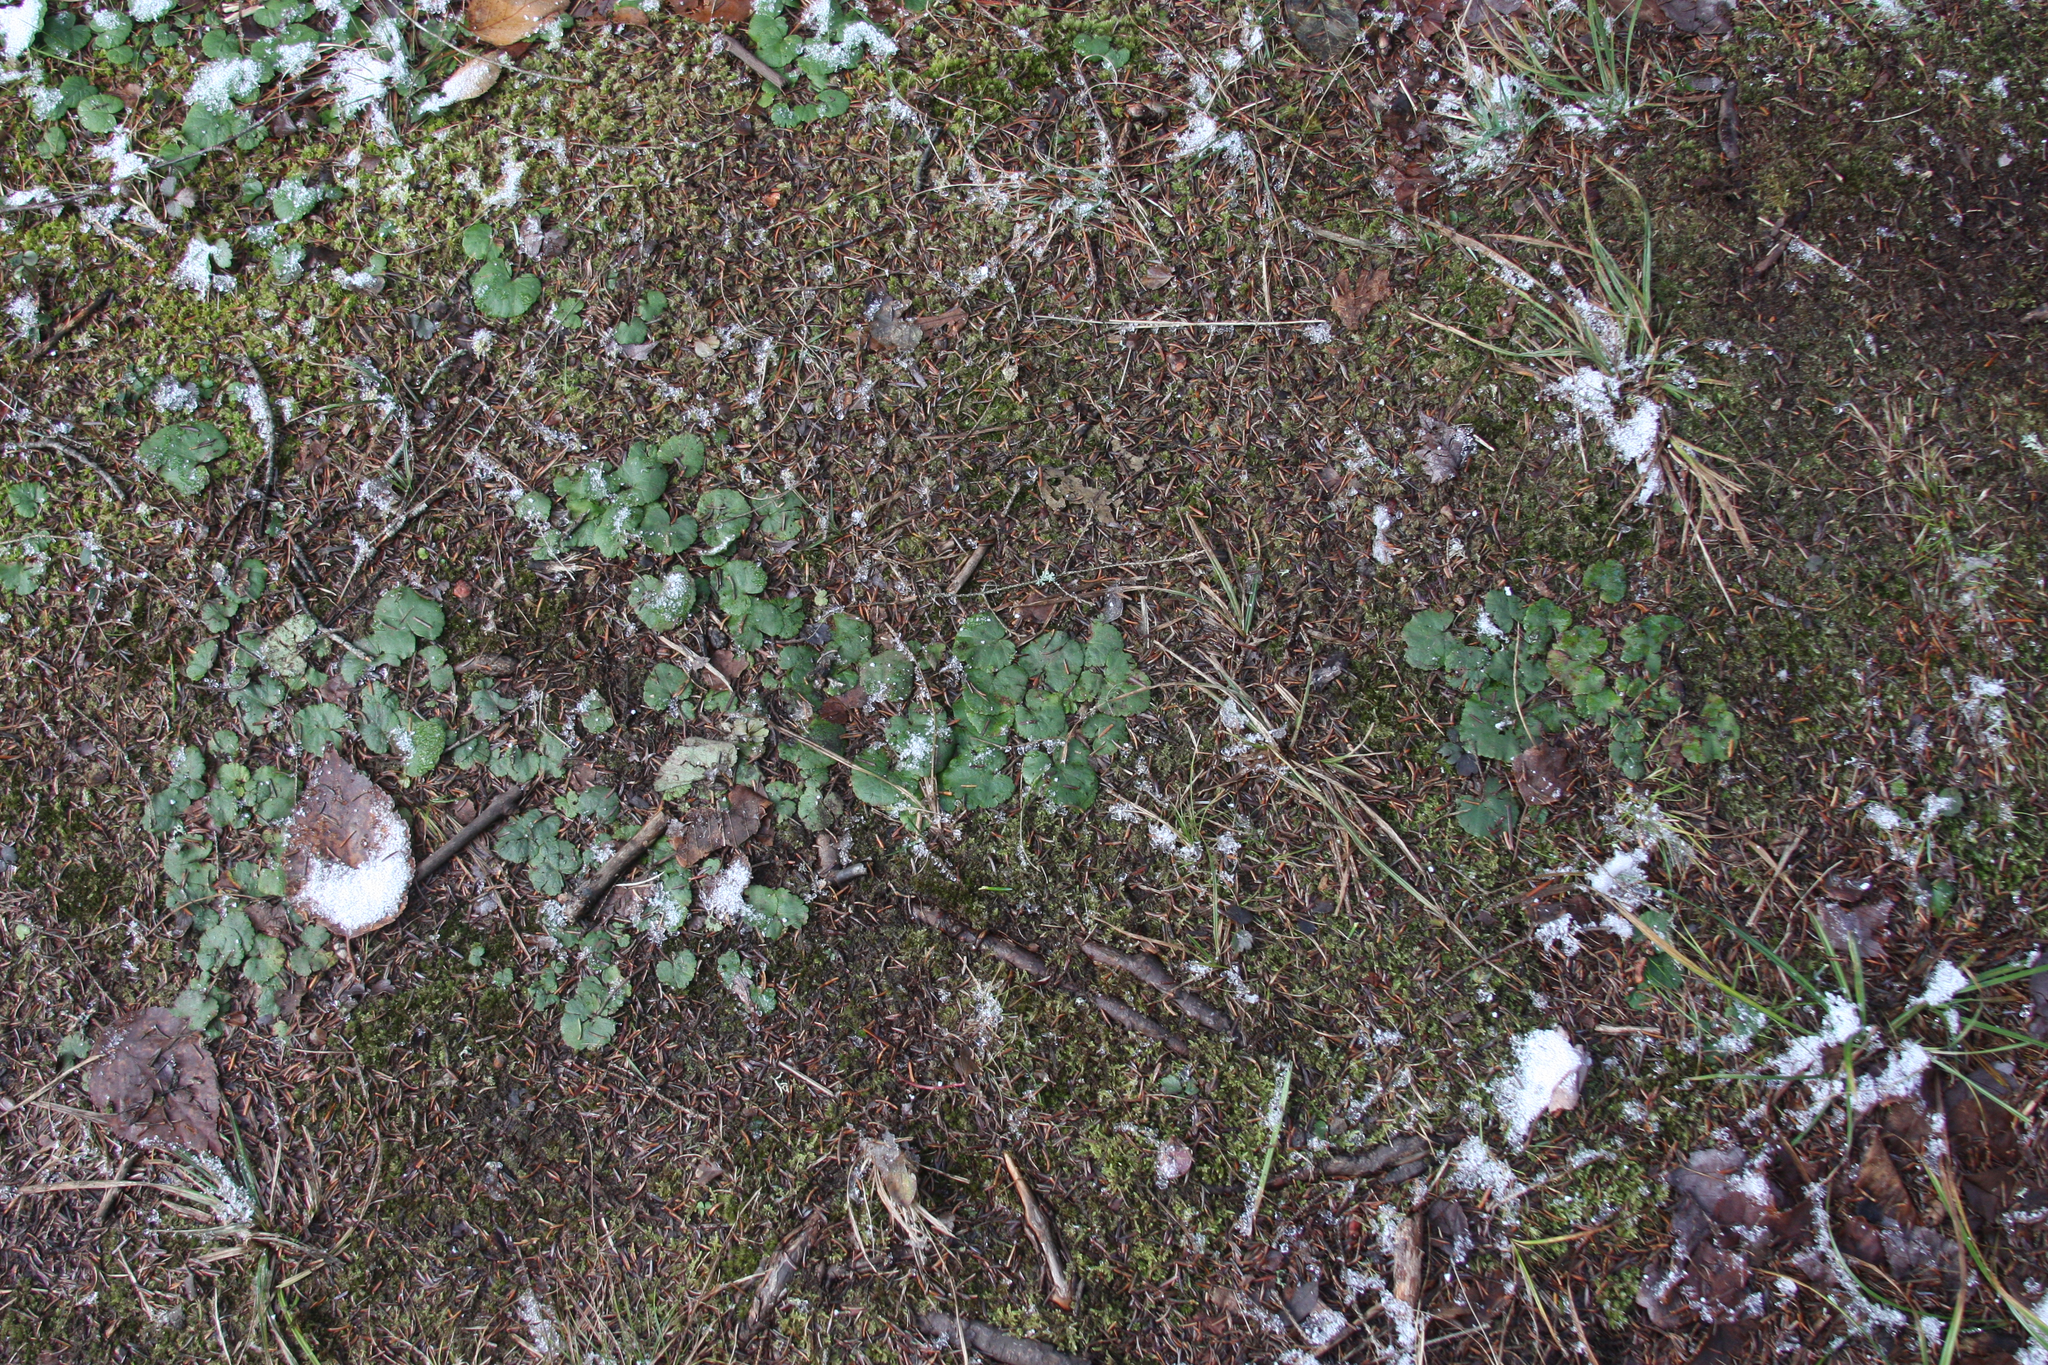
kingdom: Plantae
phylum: Tracheophyta
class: Magnoliopsida
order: Rosales
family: Rosaceae
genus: Dalibarda
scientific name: Dalibarda repens
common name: Dewdrop
